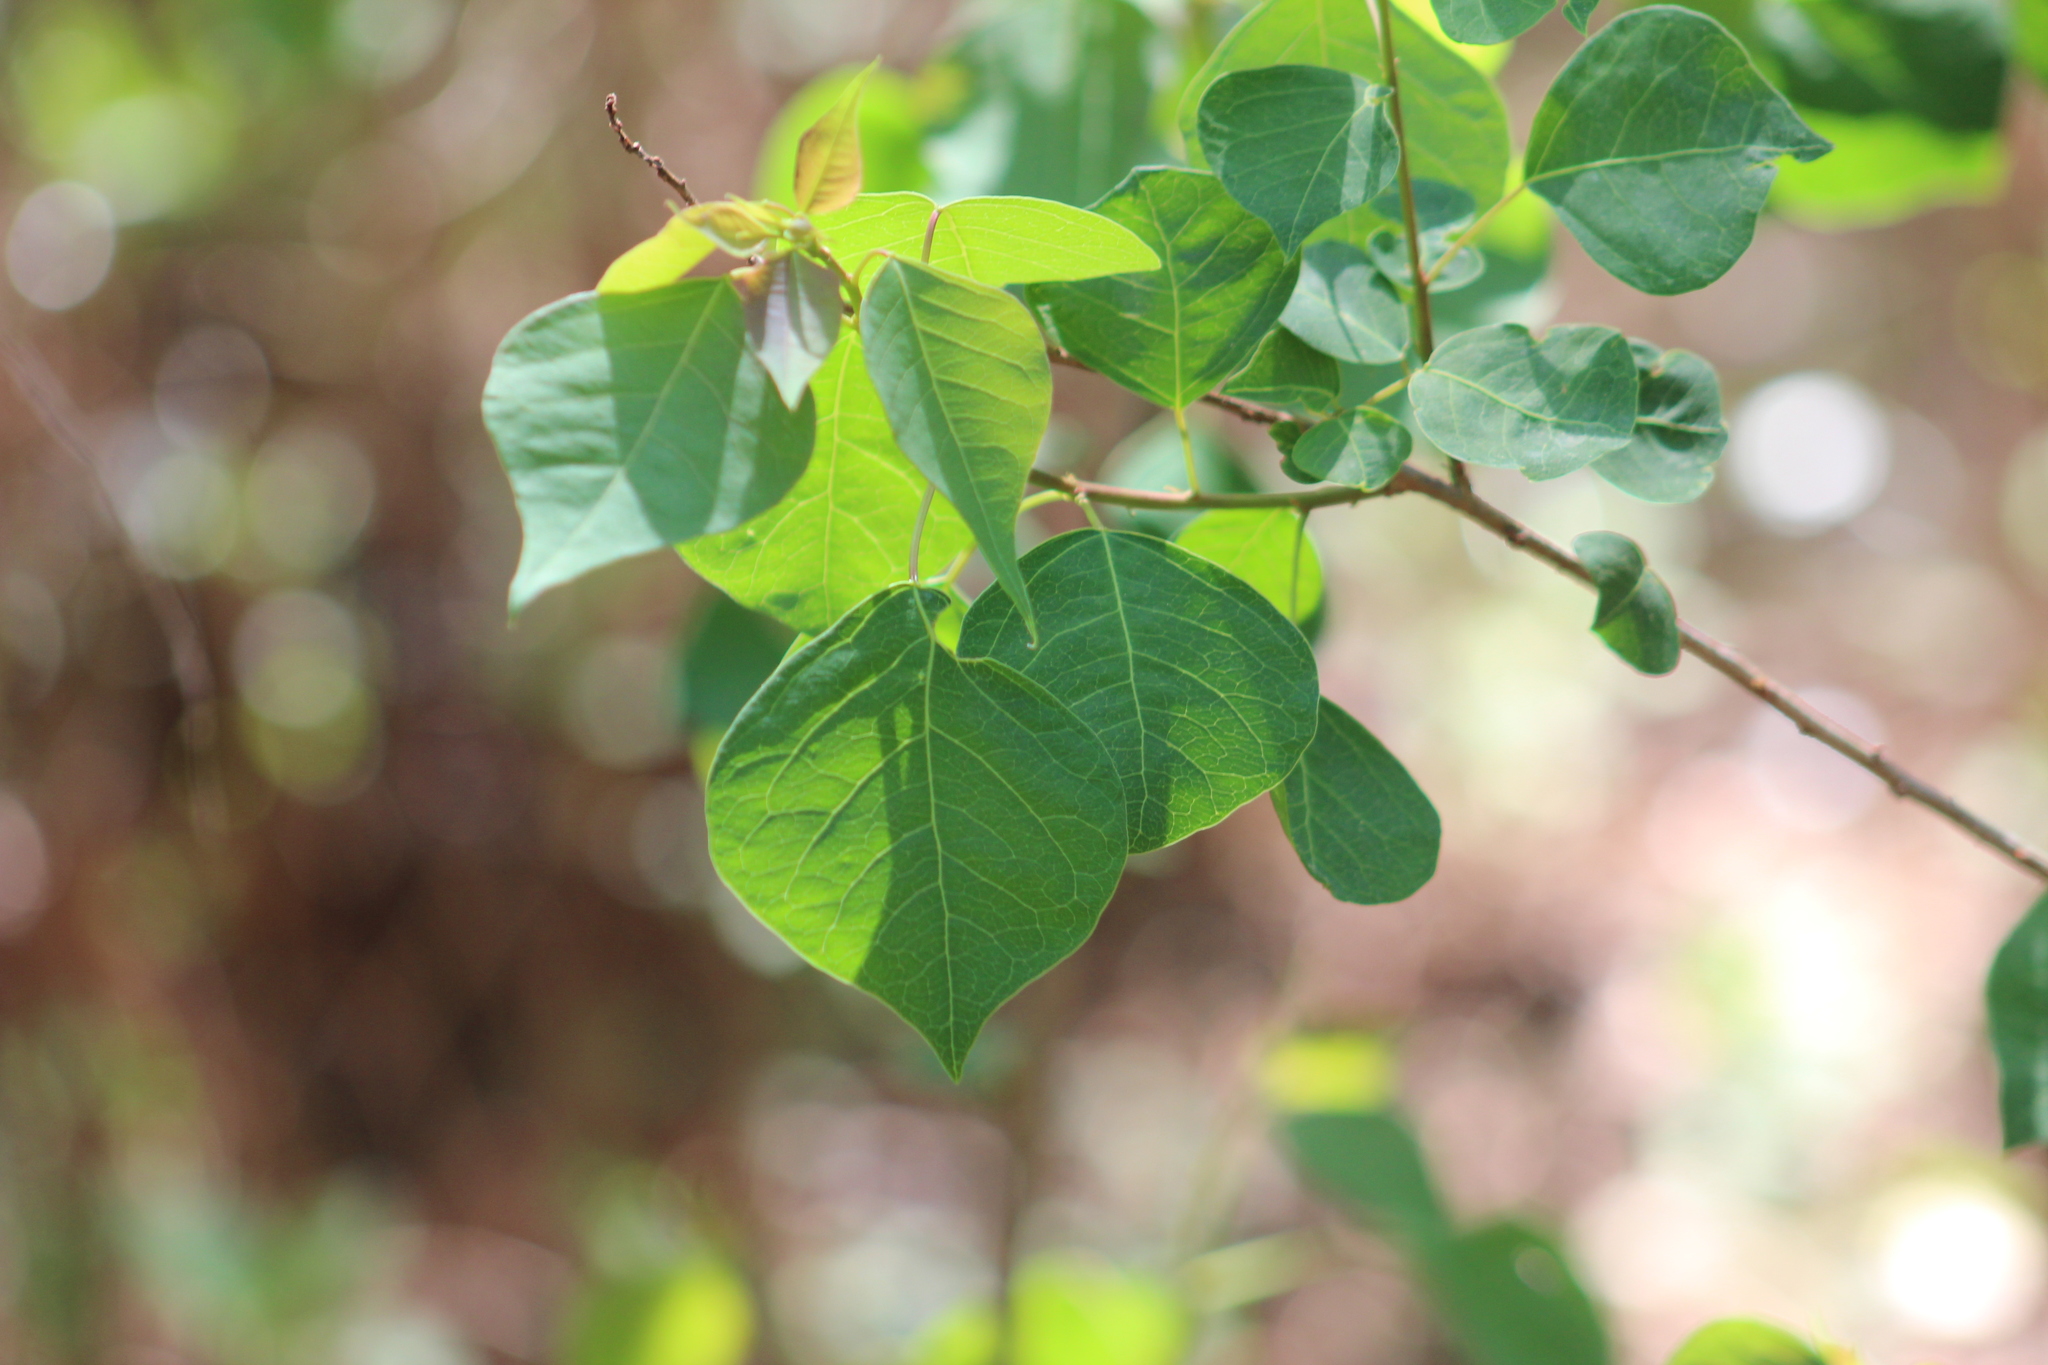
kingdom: Plantae
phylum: Tracheophyta
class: Magnoliopsida
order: Malpighiales
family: Euphorbiaceae
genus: Triadica
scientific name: Triadica sebifera
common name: Chinese tallow
